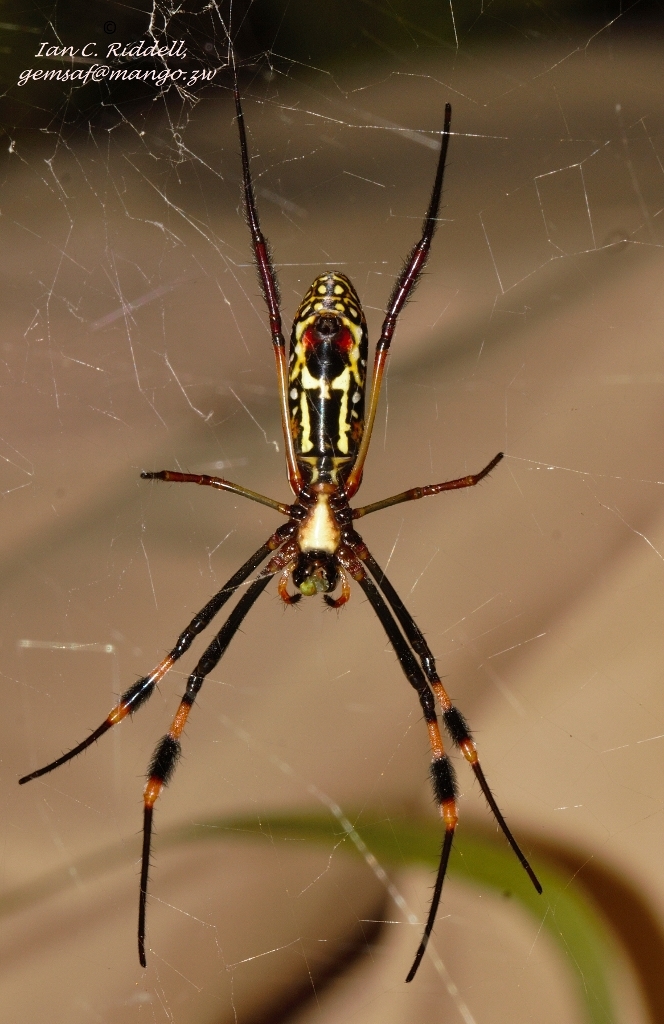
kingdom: Animalia
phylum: Arthropoda
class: Arachnida
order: Araneae
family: Araneidae
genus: Trichonephila
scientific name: Trichonephila senegalensis
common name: Banded golden orb weaver
